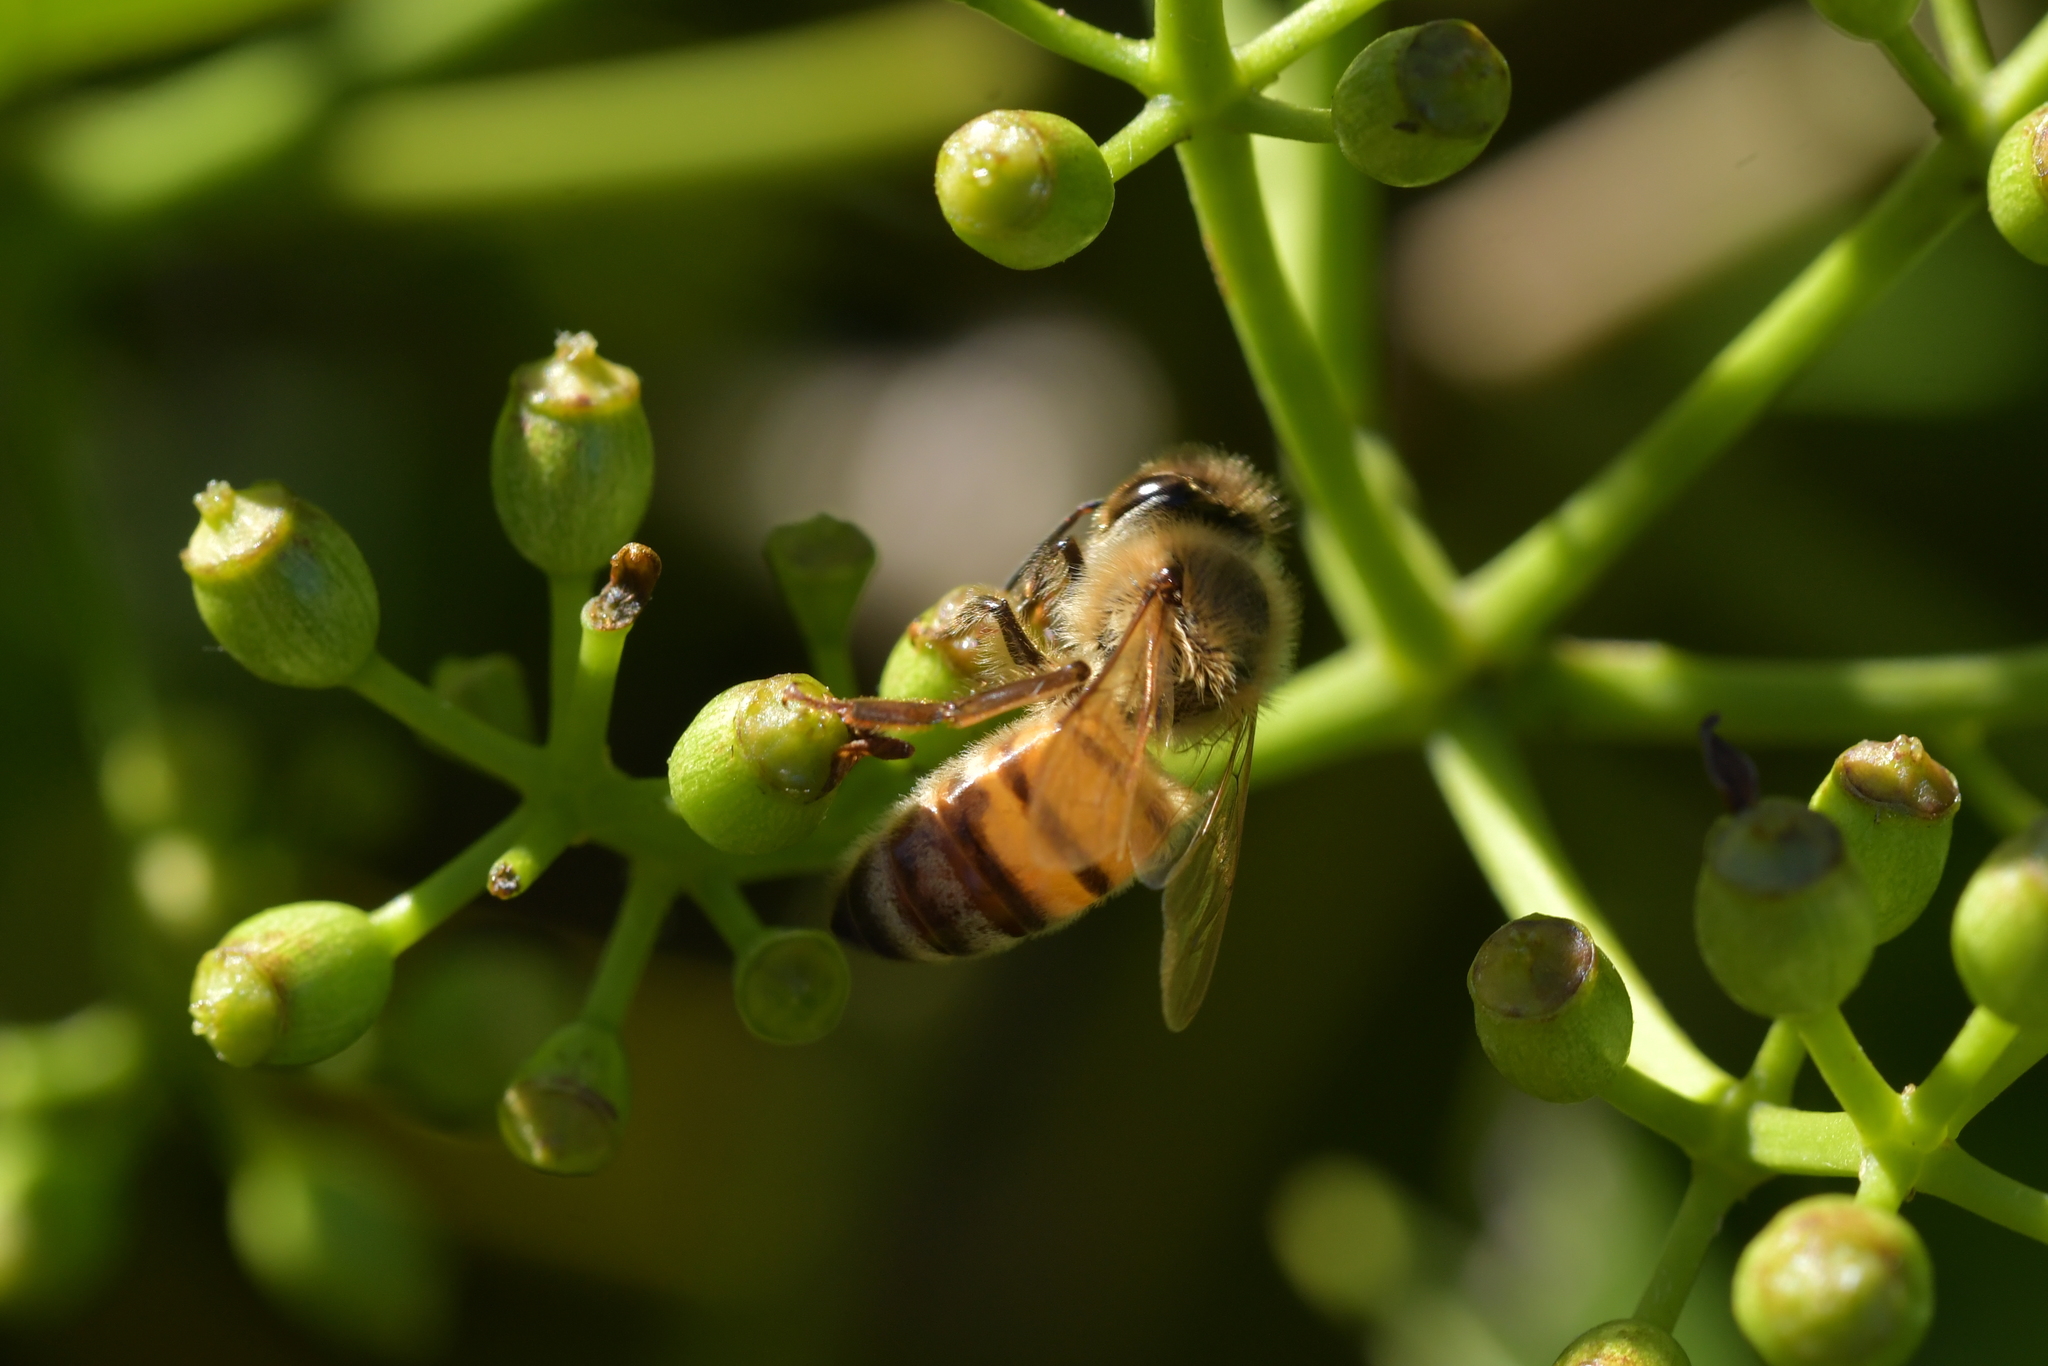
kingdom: Animalia
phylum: Arthropoda
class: Insecta
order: Hymenoptera
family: Apidae
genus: Apis
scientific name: Apis mellifera
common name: Honey bee
